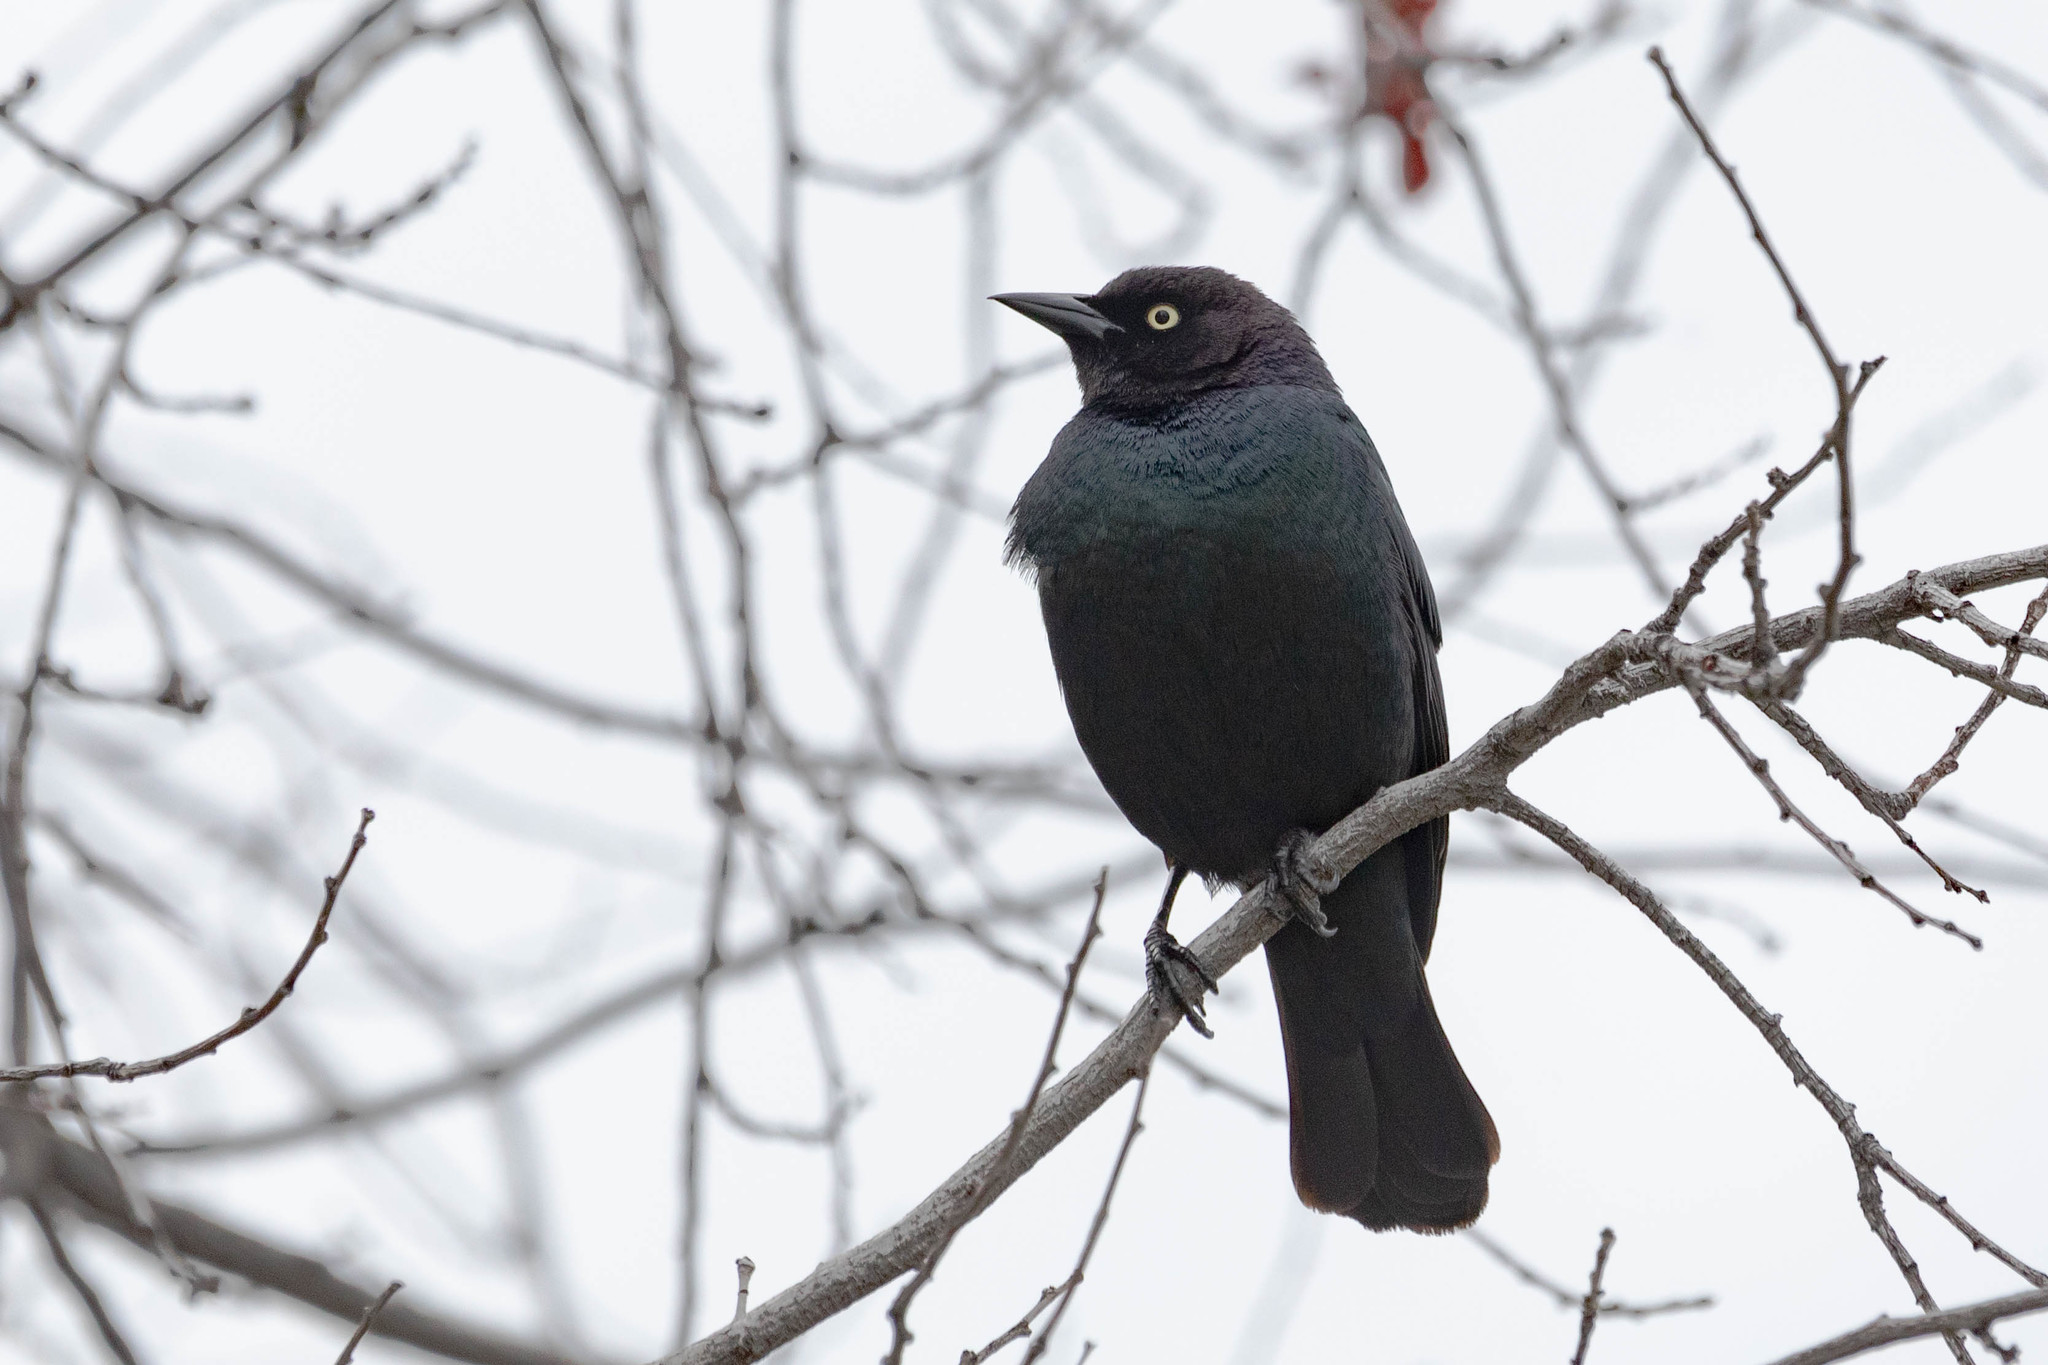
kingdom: Animalia
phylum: Chordata
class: Aves
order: Passeriformes
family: Icteridae
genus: Euphagus
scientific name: Euphagus cyanocephalus
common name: Brewer's blackbird
